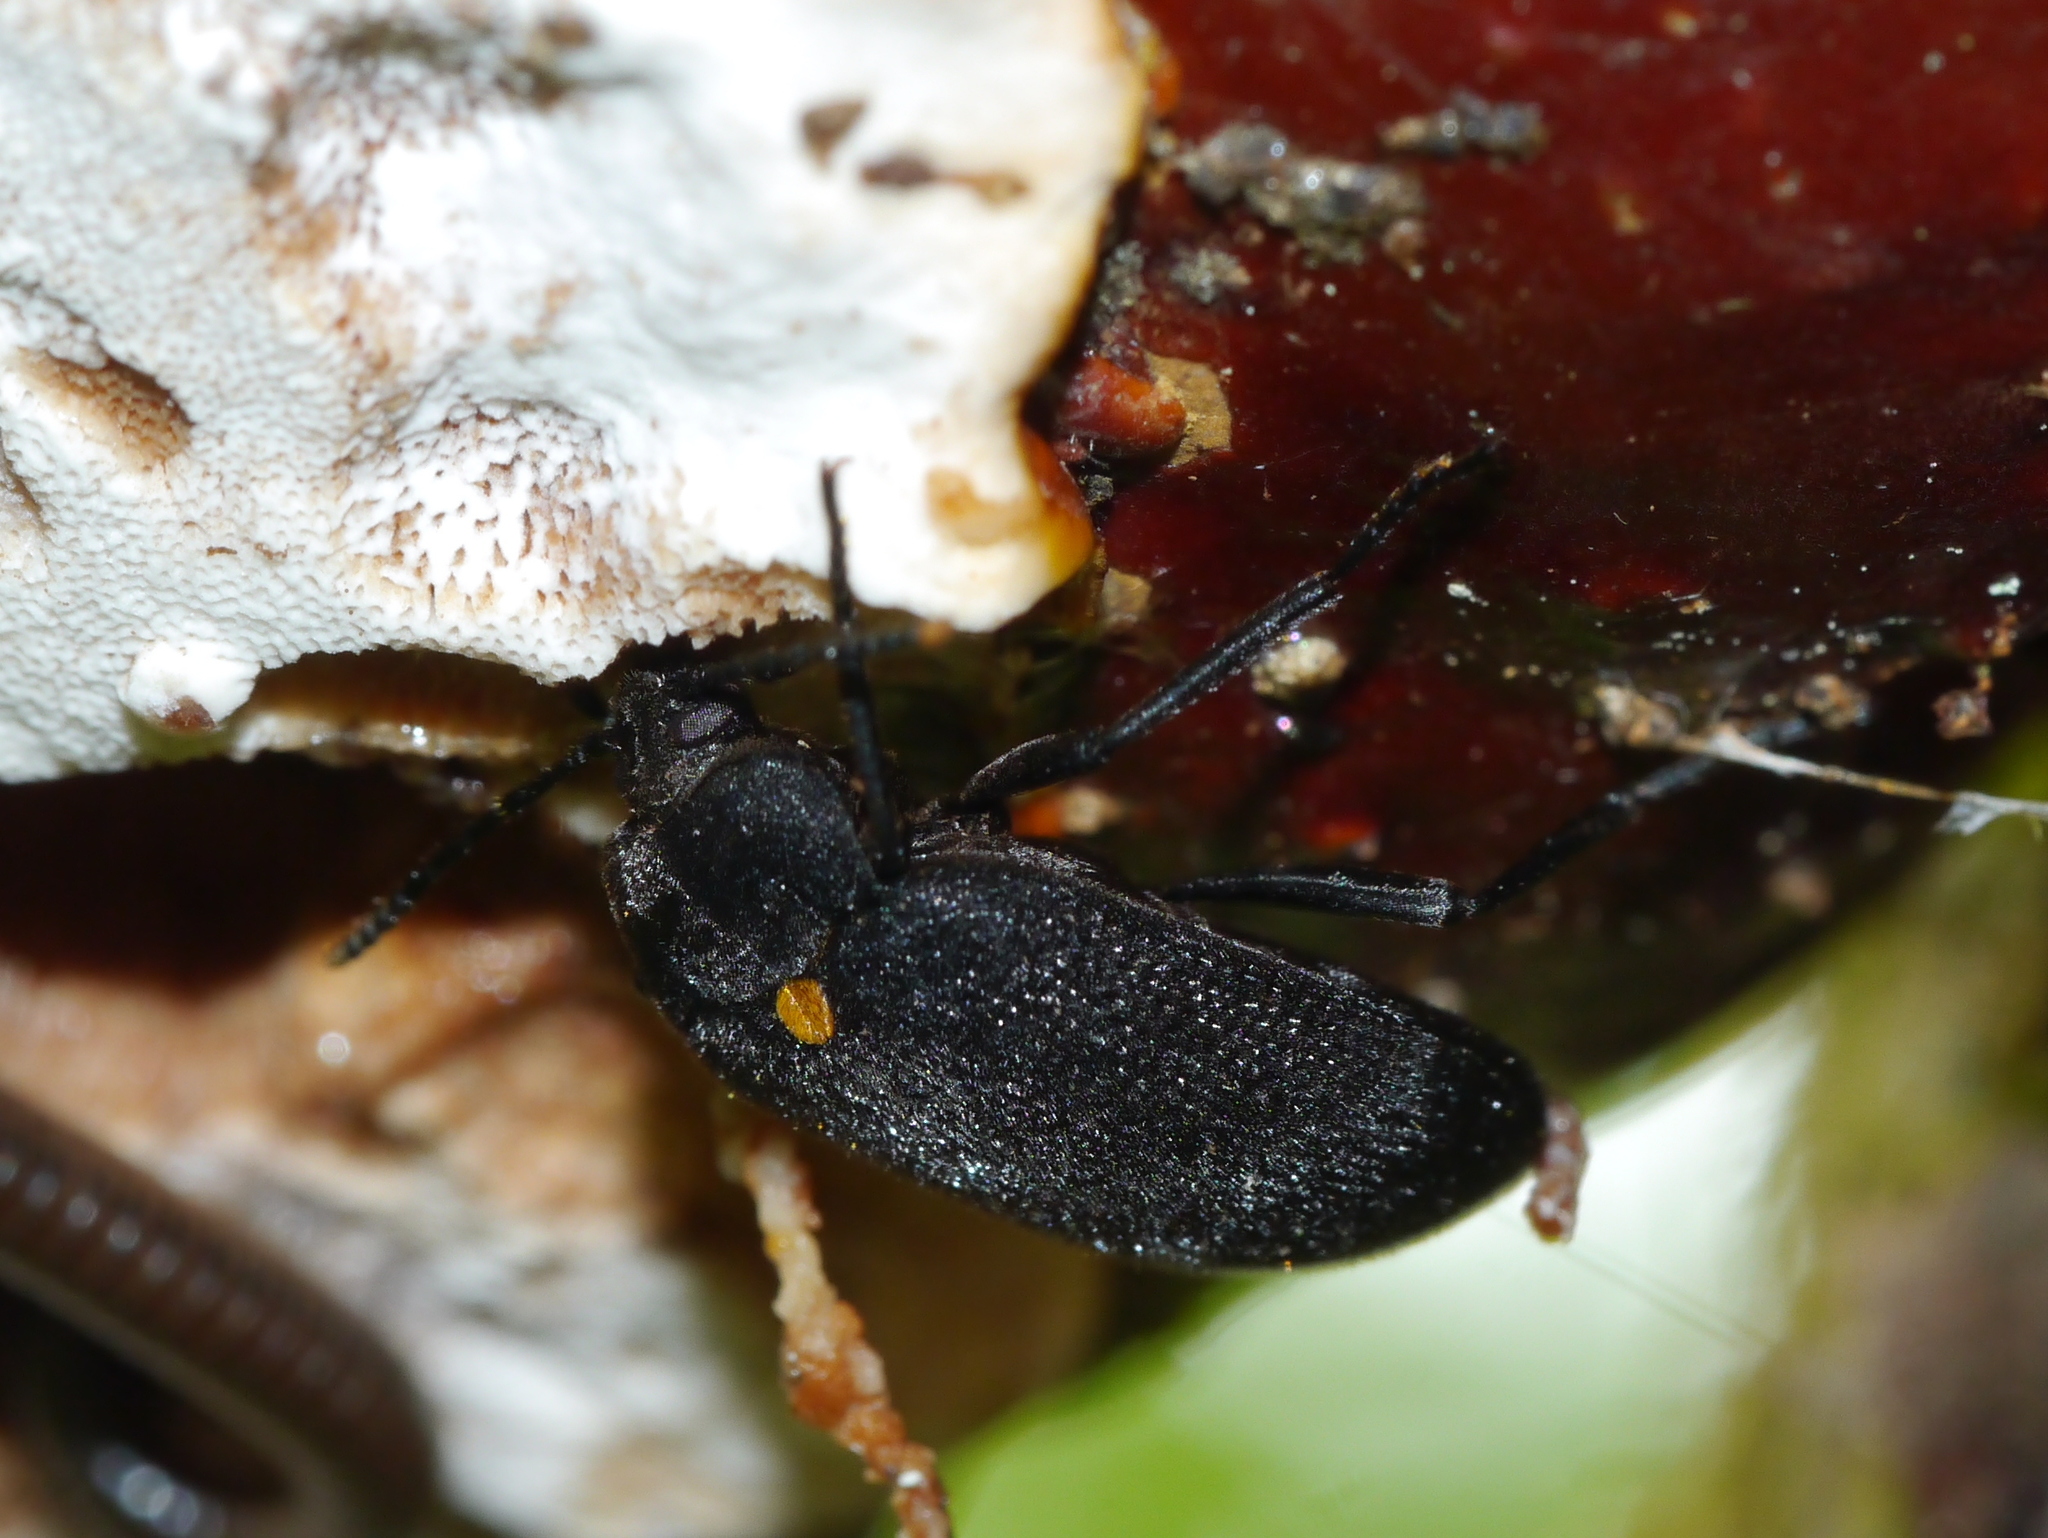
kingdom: Animalia
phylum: Arthropoda
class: Insecta
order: Coleoptera
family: Tetratomidae
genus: Penthe
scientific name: Penthe obliquata
